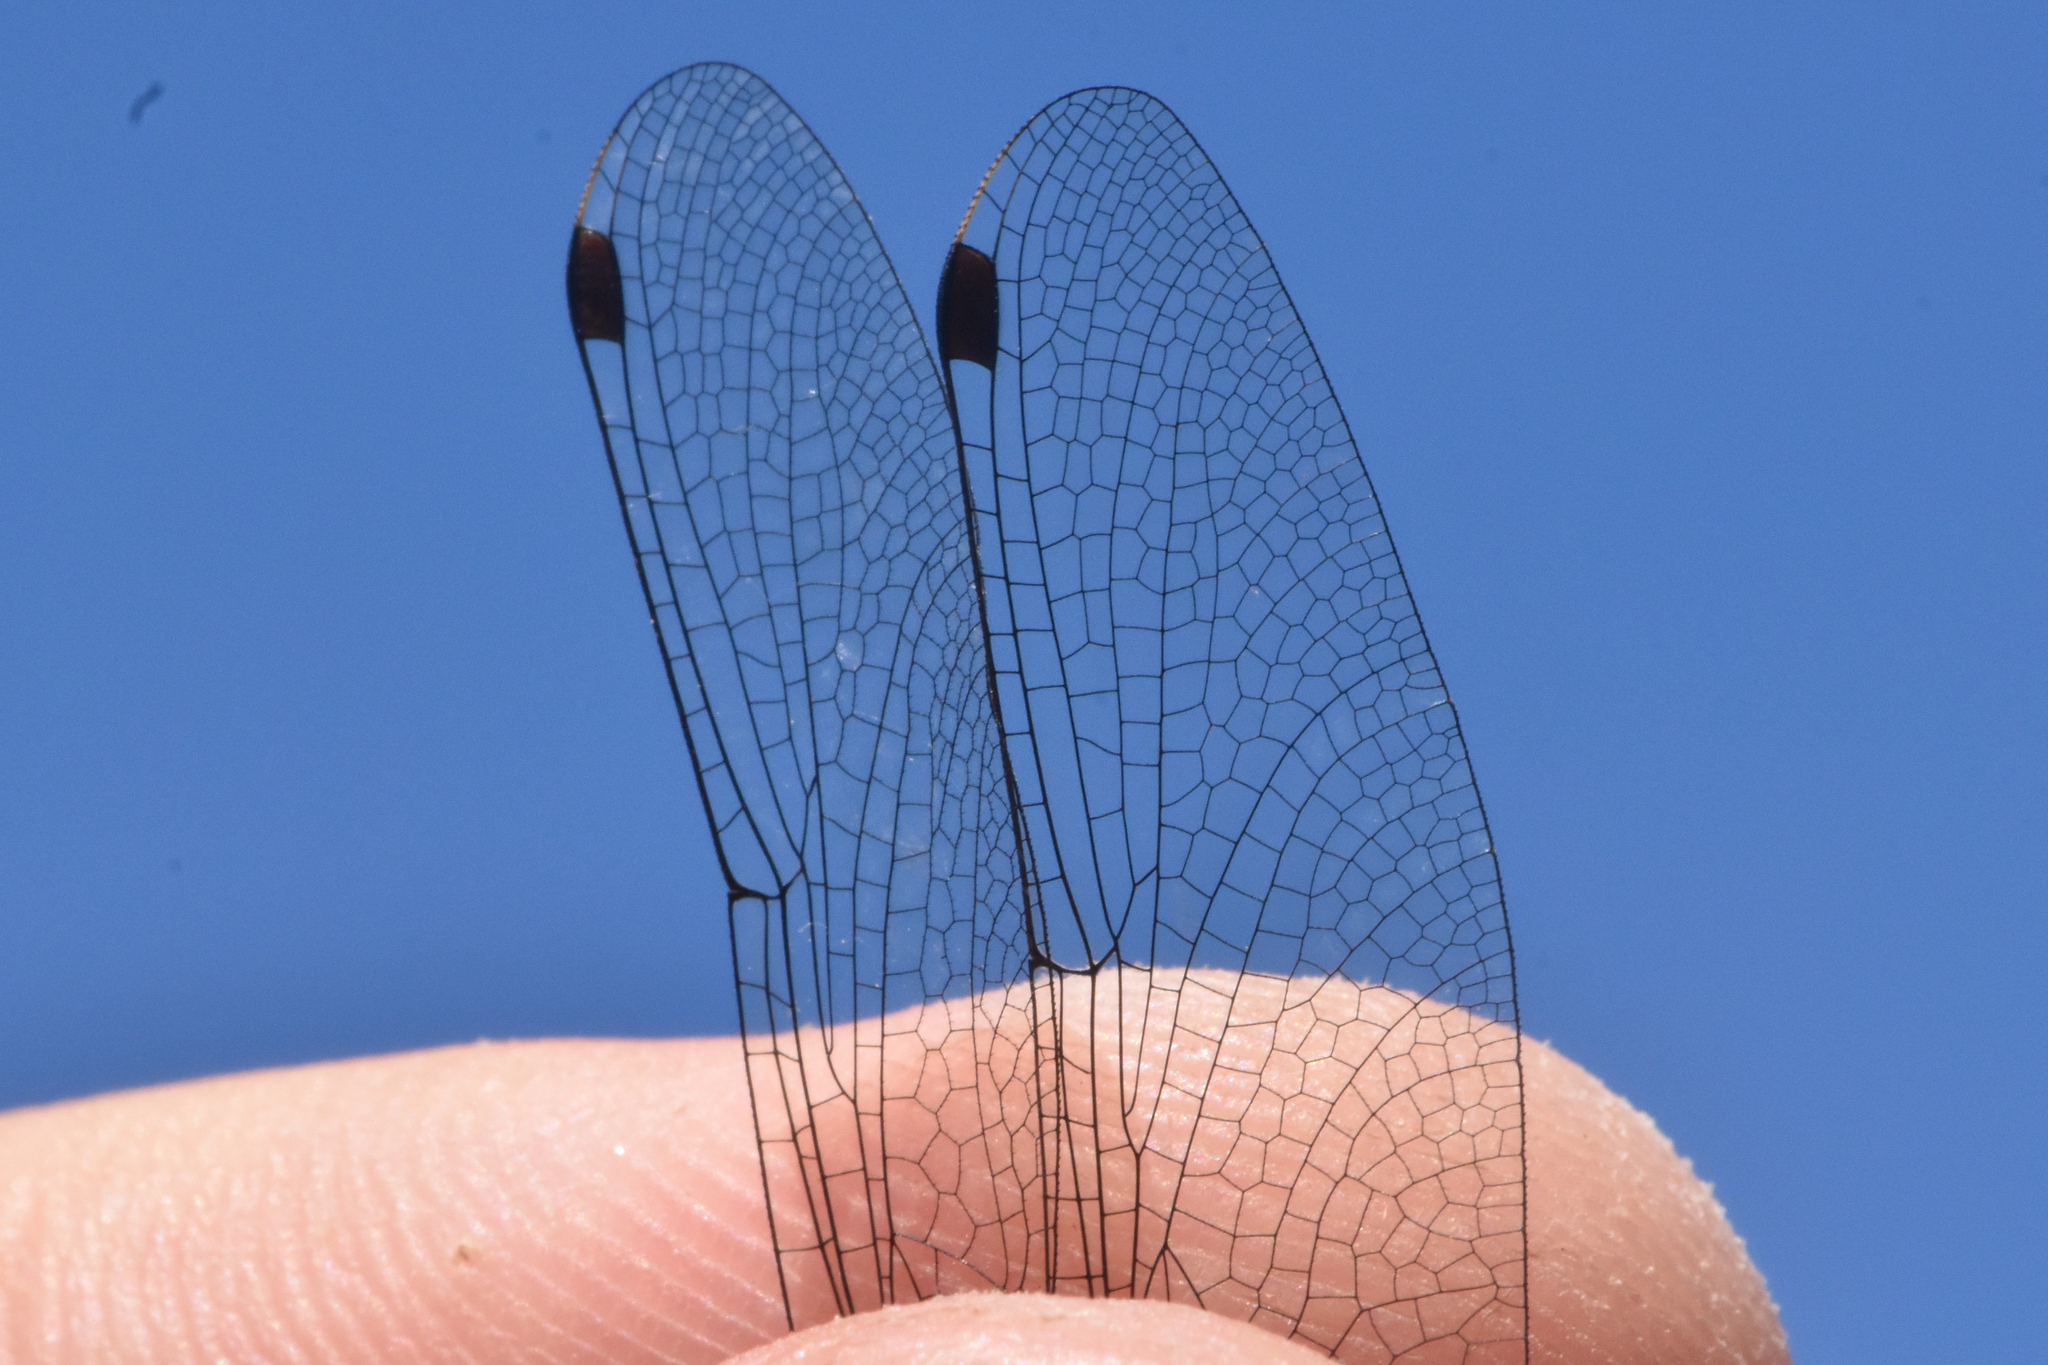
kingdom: Animalia
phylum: Arthropoda
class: Insecta
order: Odonata
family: Libellulidae
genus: Leucorrhinia
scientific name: Leucorrhinia glacialis
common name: Crimson-ringed whiteface
